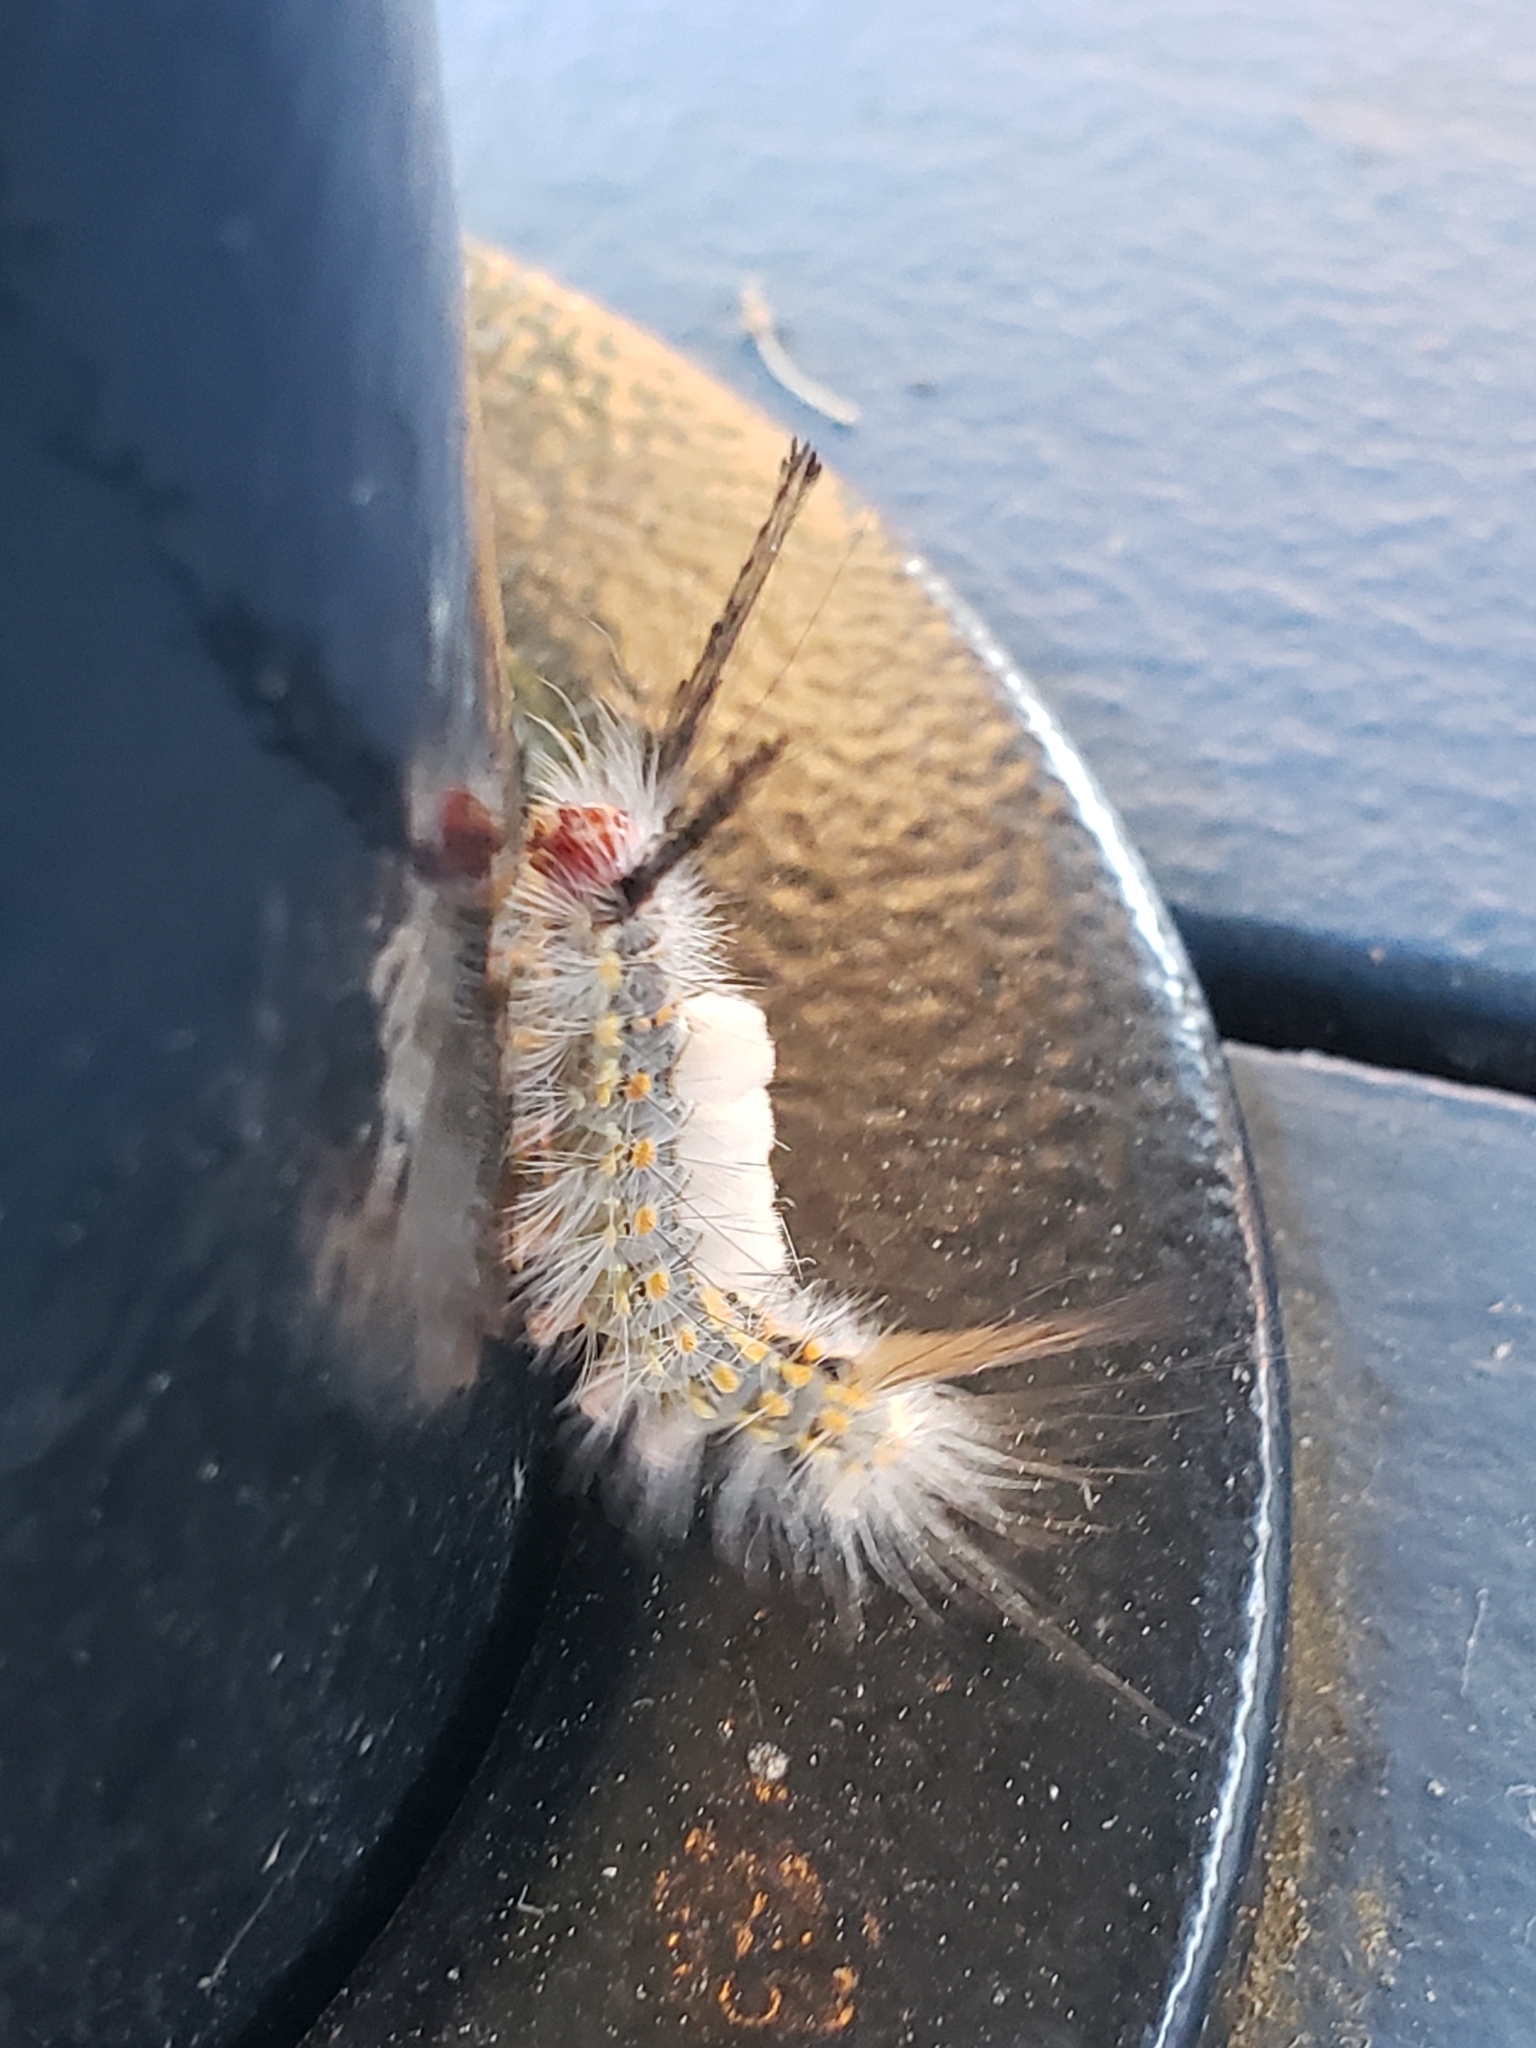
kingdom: Animalia
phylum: Arthropoda
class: Insecta
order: Lepidoptera
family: Erebidae
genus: Orgyia
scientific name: Orgyia detrita
